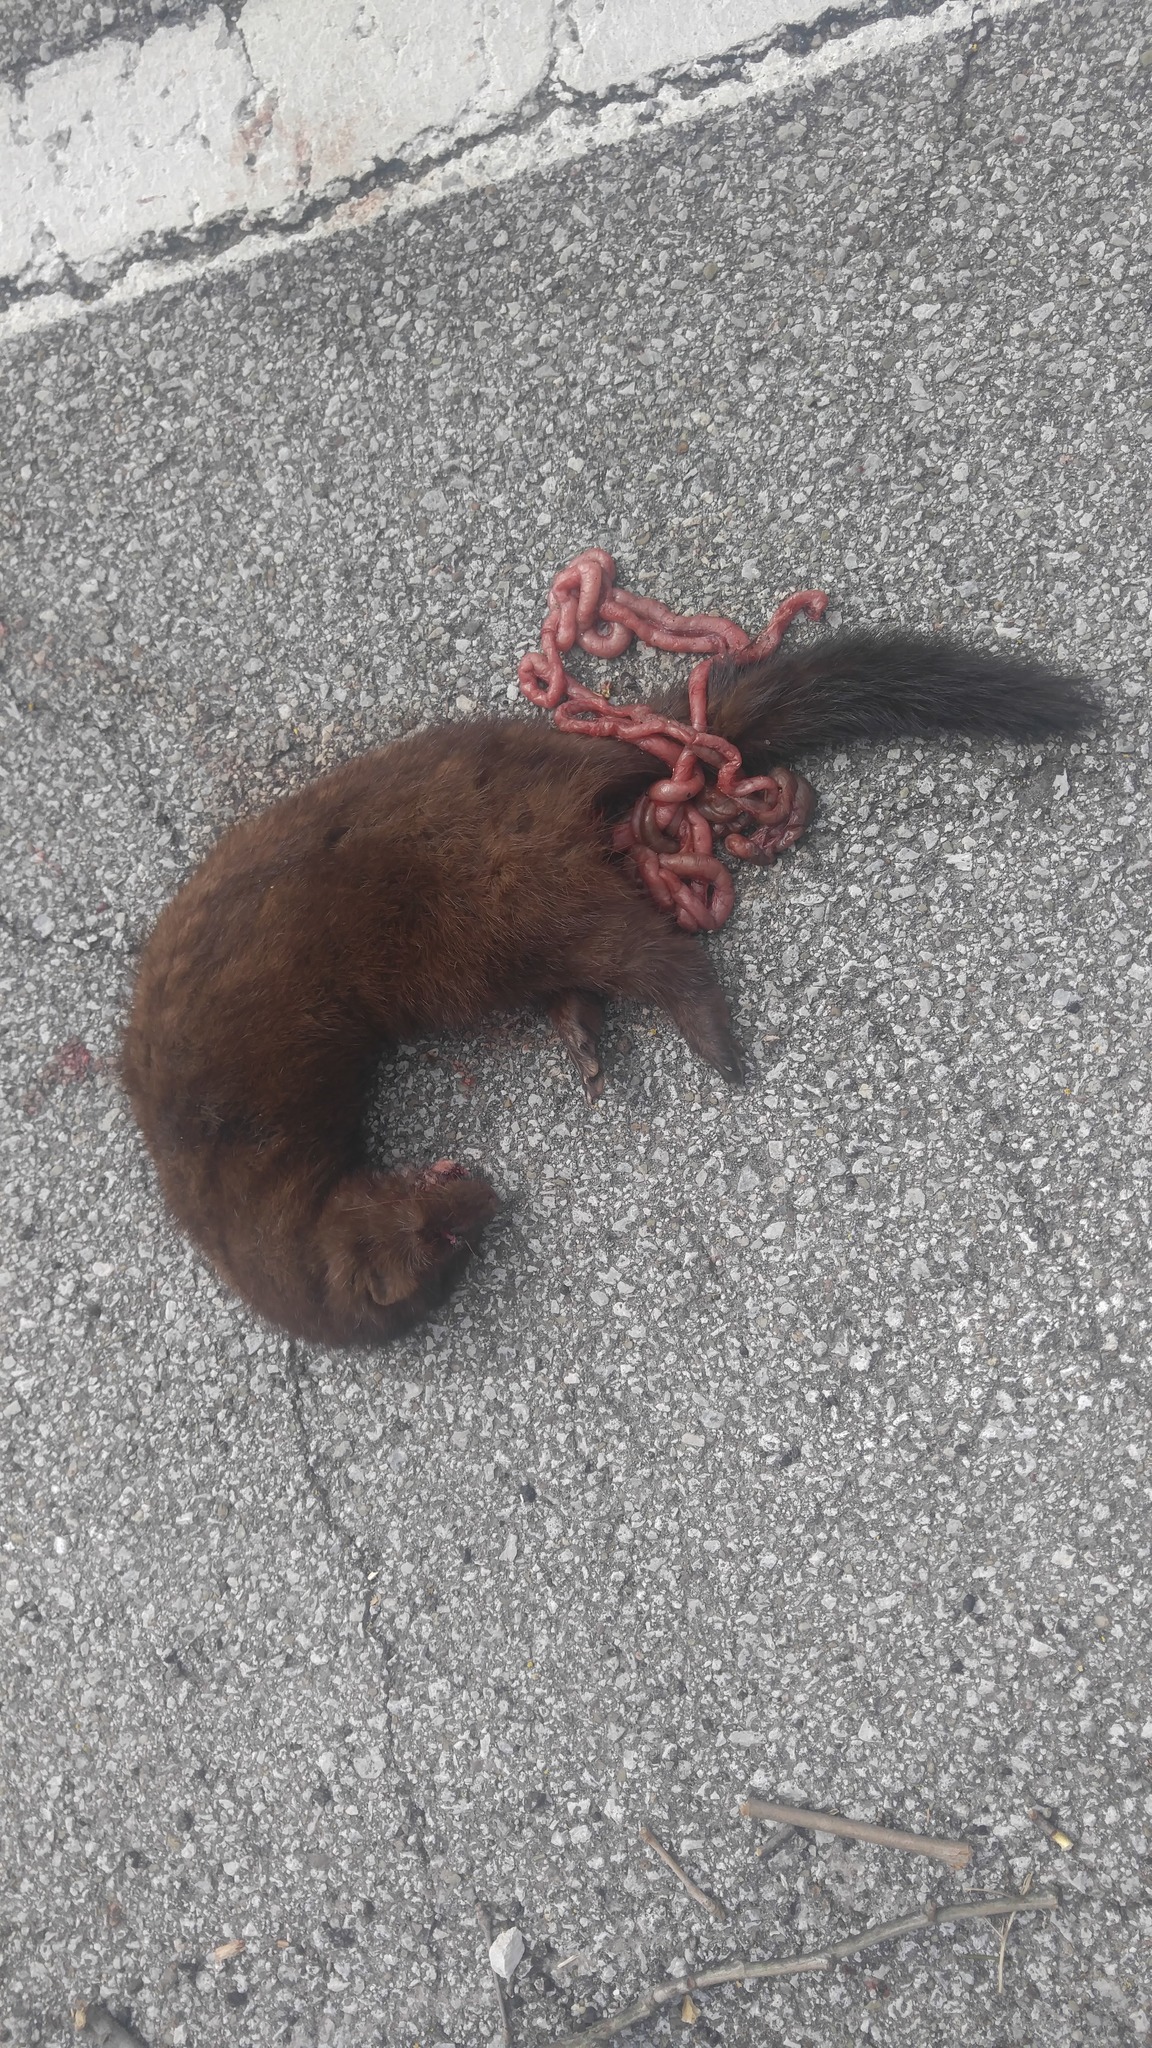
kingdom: Animalia
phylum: Chordata
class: Mammalia
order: Carnivora
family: Mustelidae
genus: Mustela
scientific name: Mustela
